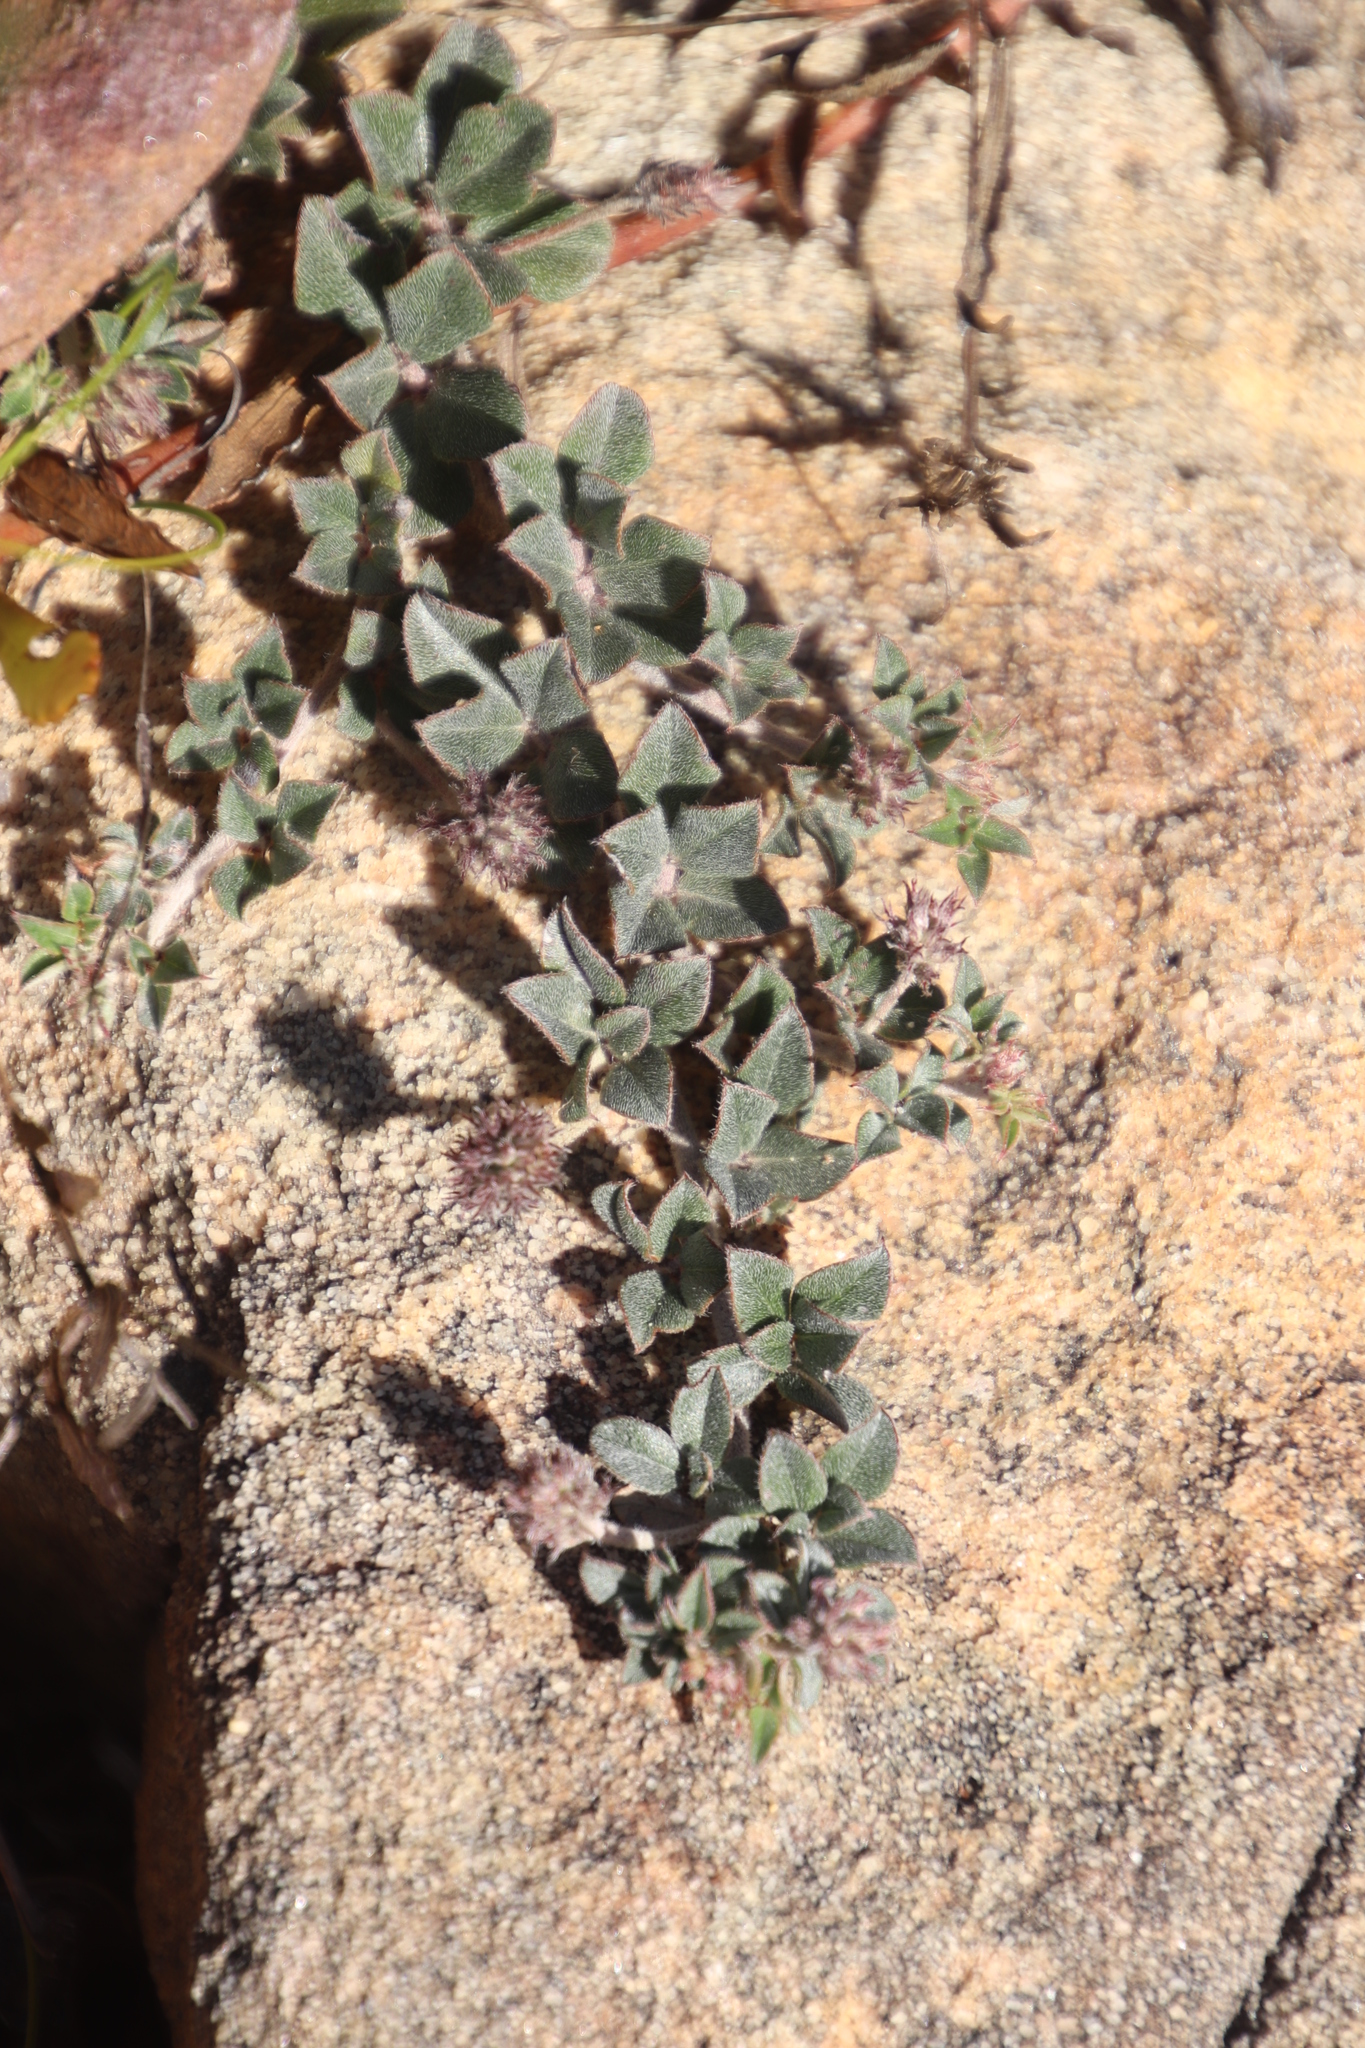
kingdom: Plantae
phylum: Tracheophyta
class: Magnoliopsida
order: Fabales
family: Fabaceae
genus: Indigofera
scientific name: Indigofera mauritanica
